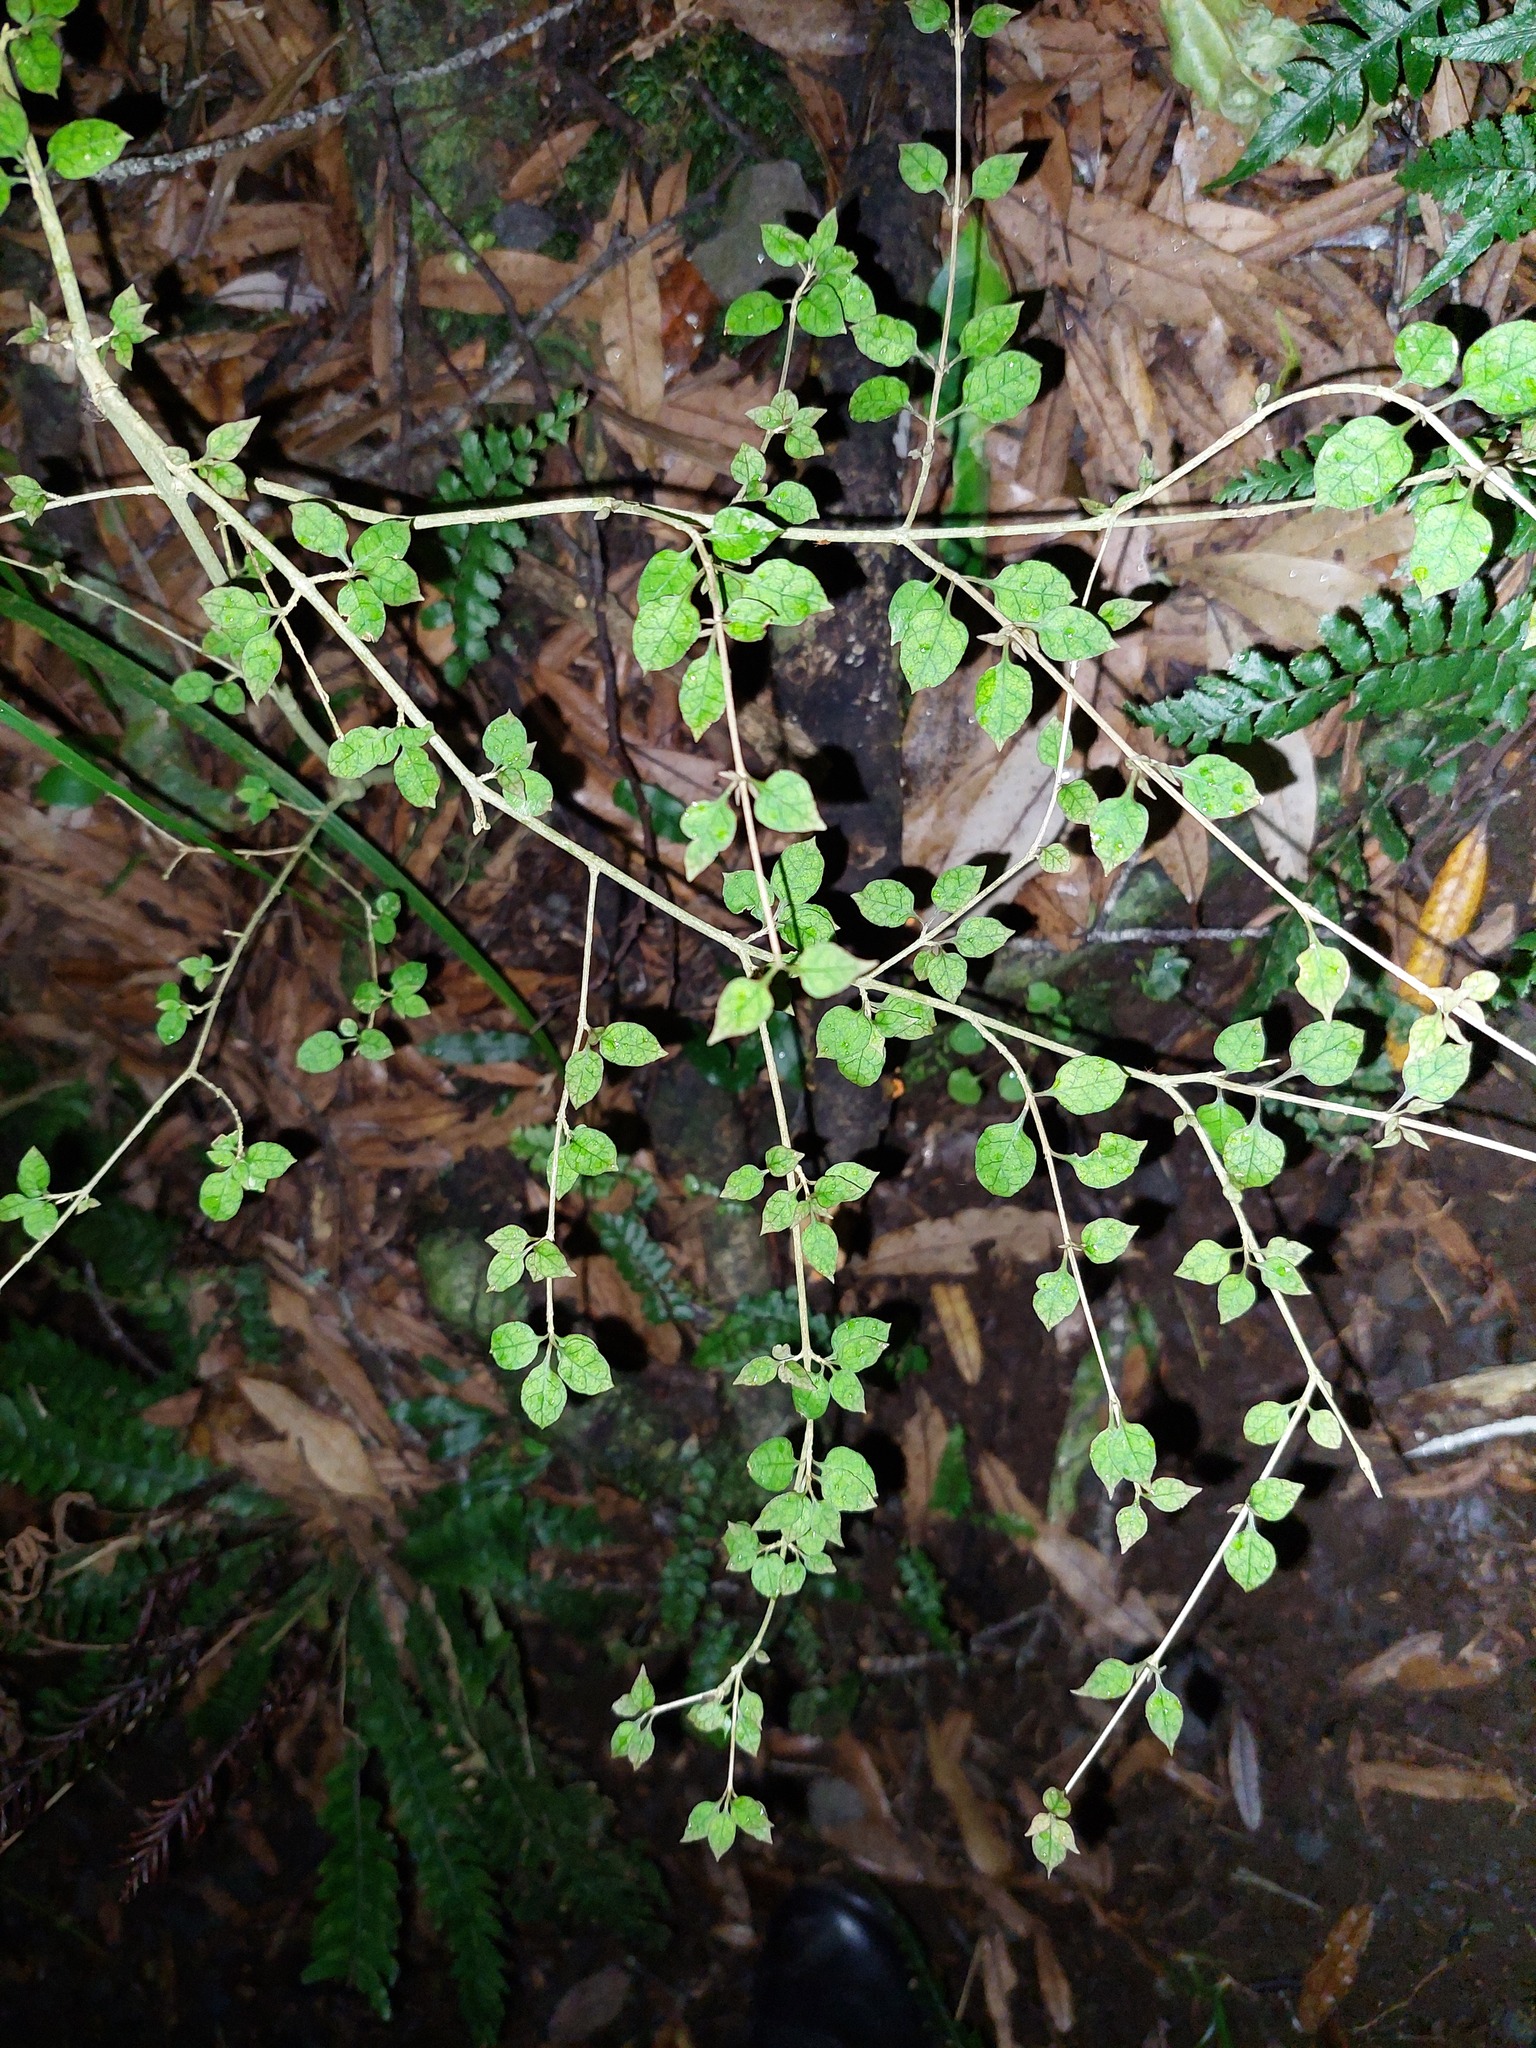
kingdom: Plantae
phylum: Tracheophyta
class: Magnoliopsida
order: Gentianales
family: Rubiaceae
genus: Coprosma
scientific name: Coprosma areolata
